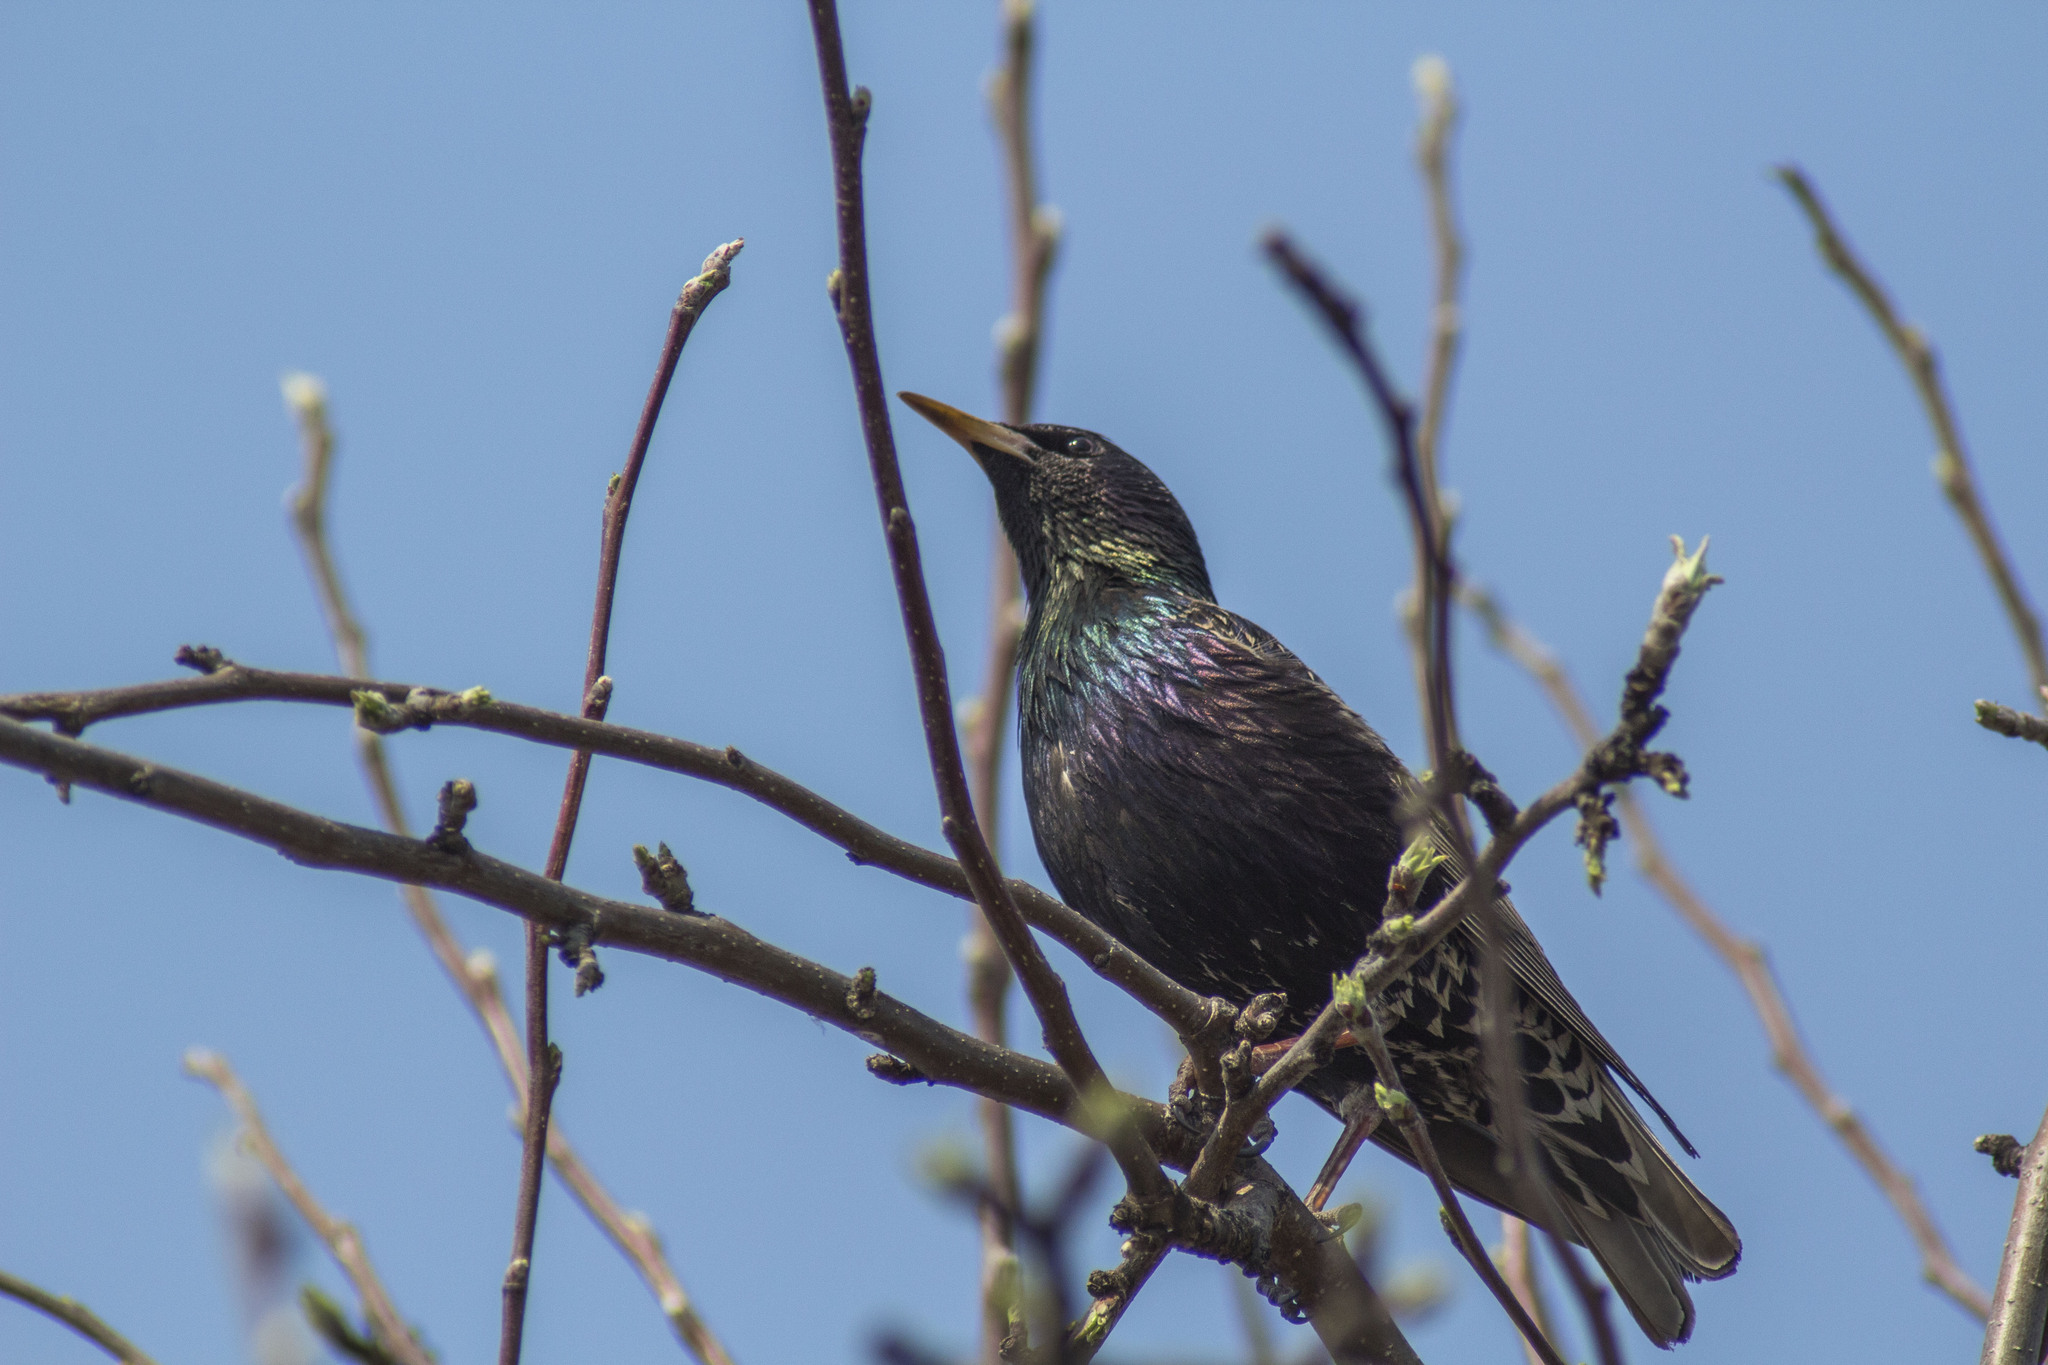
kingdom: Animalia
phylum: Chordata
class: Aves
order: Passeriformes
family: Sturnidae
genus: Sturnus
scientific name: Sturnus vulgaris
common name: Common starling
